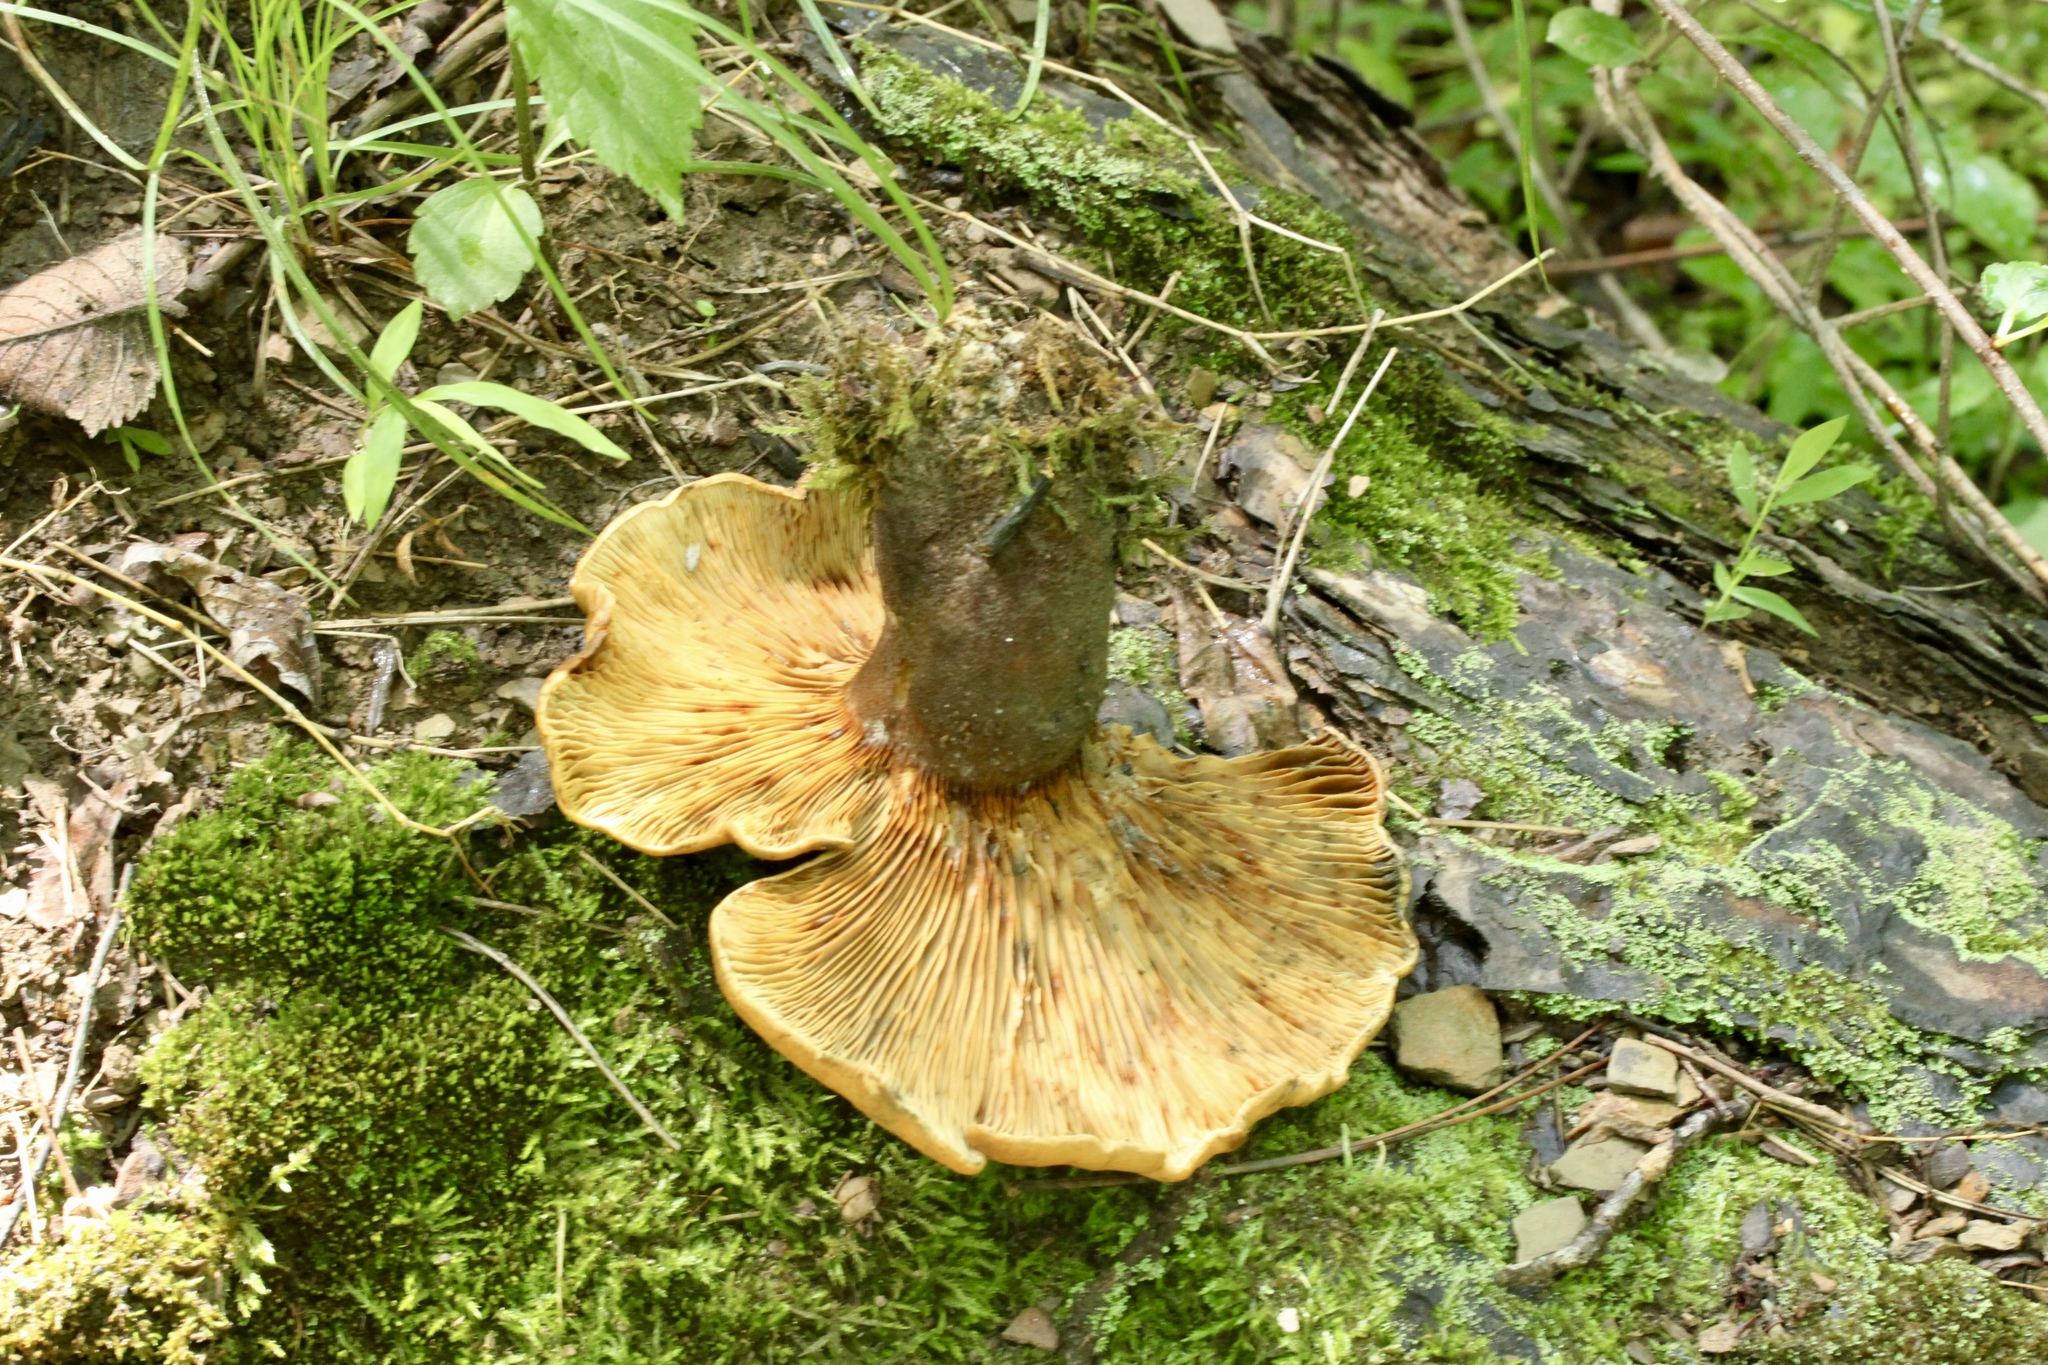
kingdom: Fungi
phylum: Basidiomycota
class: Agaricomycetes
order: Boletales
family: Tapinellaceae
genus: Tapinella
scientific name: Tapinella atrotomentosa
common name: Velvet rollrim
